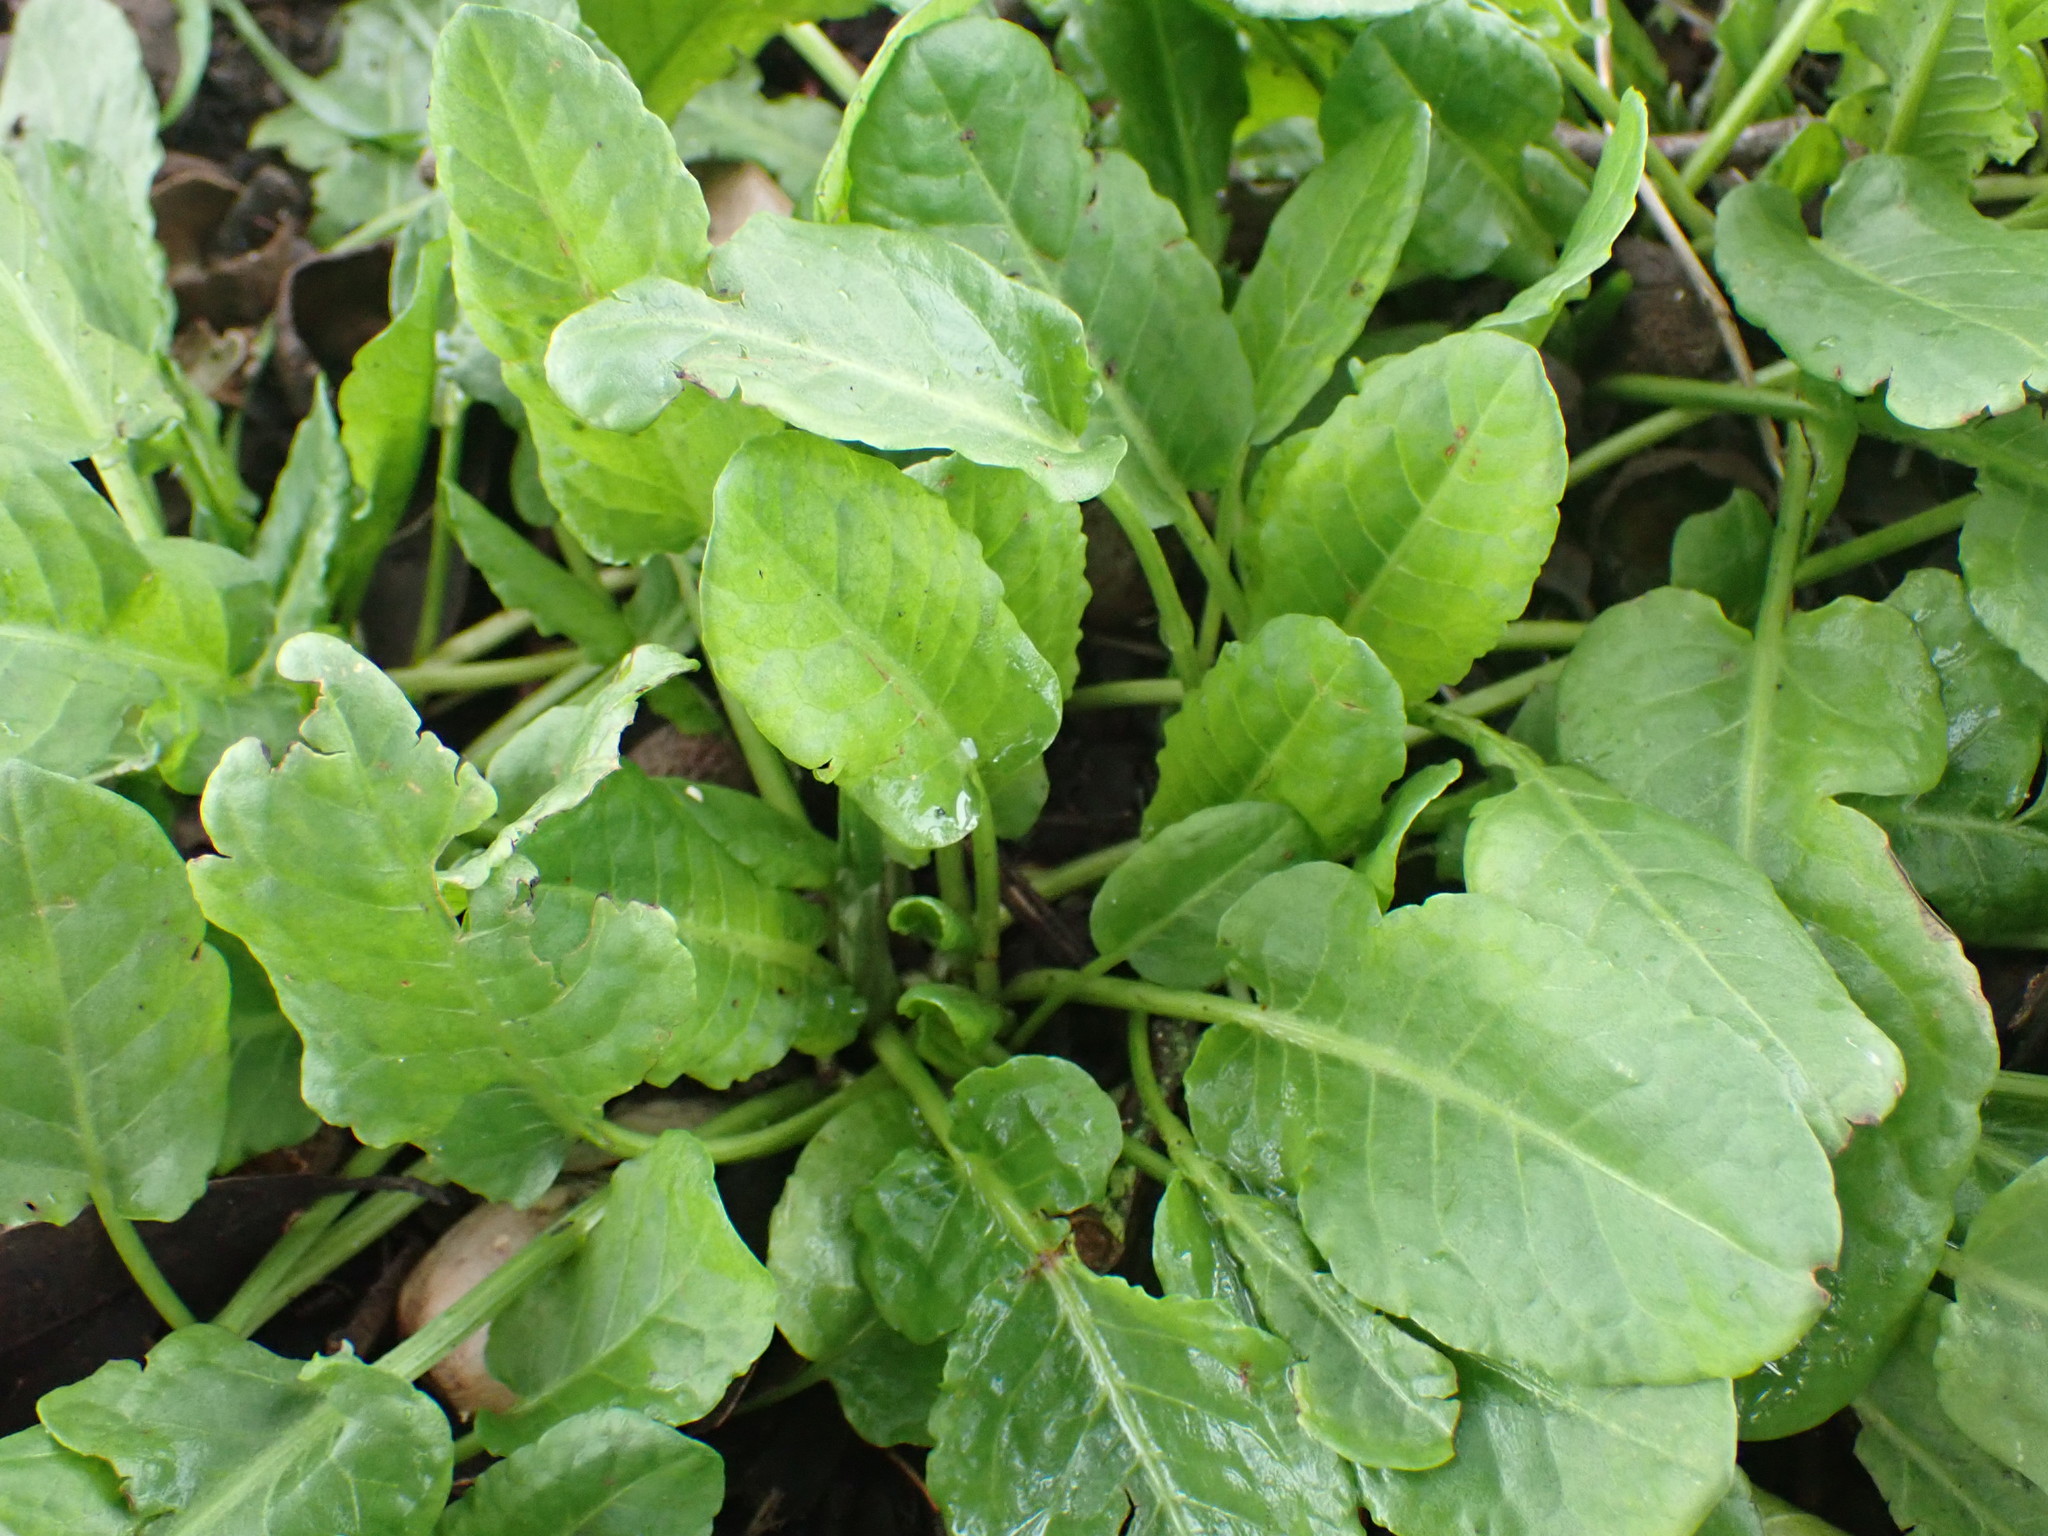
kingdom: Plantae
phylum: Tracheophyta
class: Magnoliopsida
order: Caryophyllales
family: Polygonaceae
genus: Rumex
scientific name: Rumex pulcher
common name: Fiddle dock
